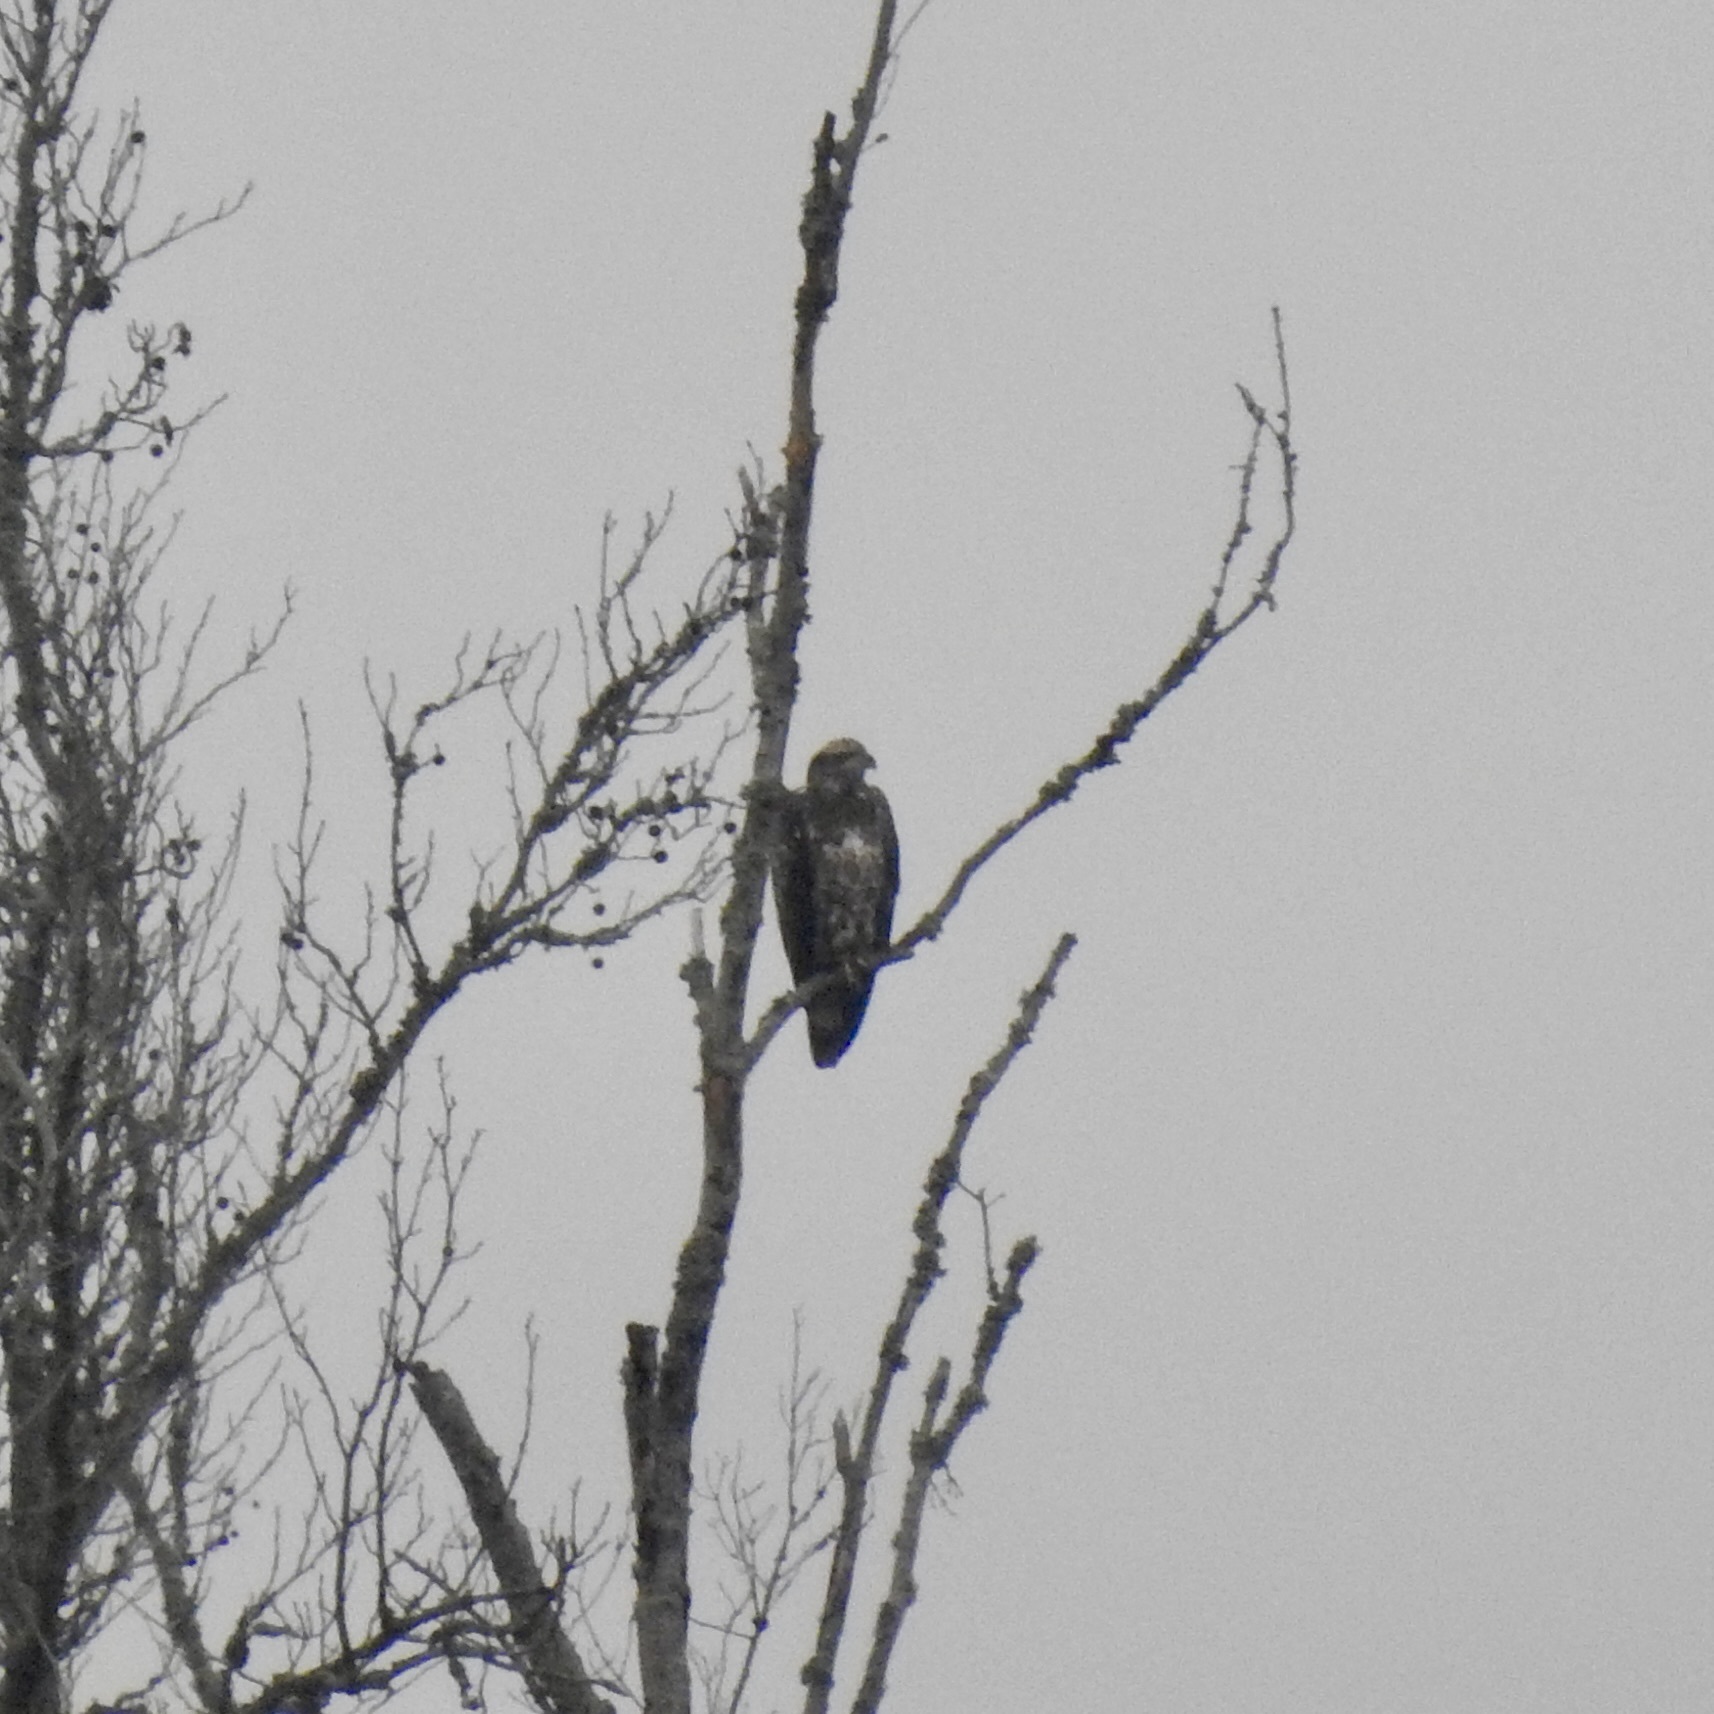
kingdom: Animalia
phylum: Chordata
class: Aves
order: Accipitriformes
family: Accipitridae
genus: Haliaeetus
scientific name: Haliaeetus leucocephalus
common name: Bald eagle
